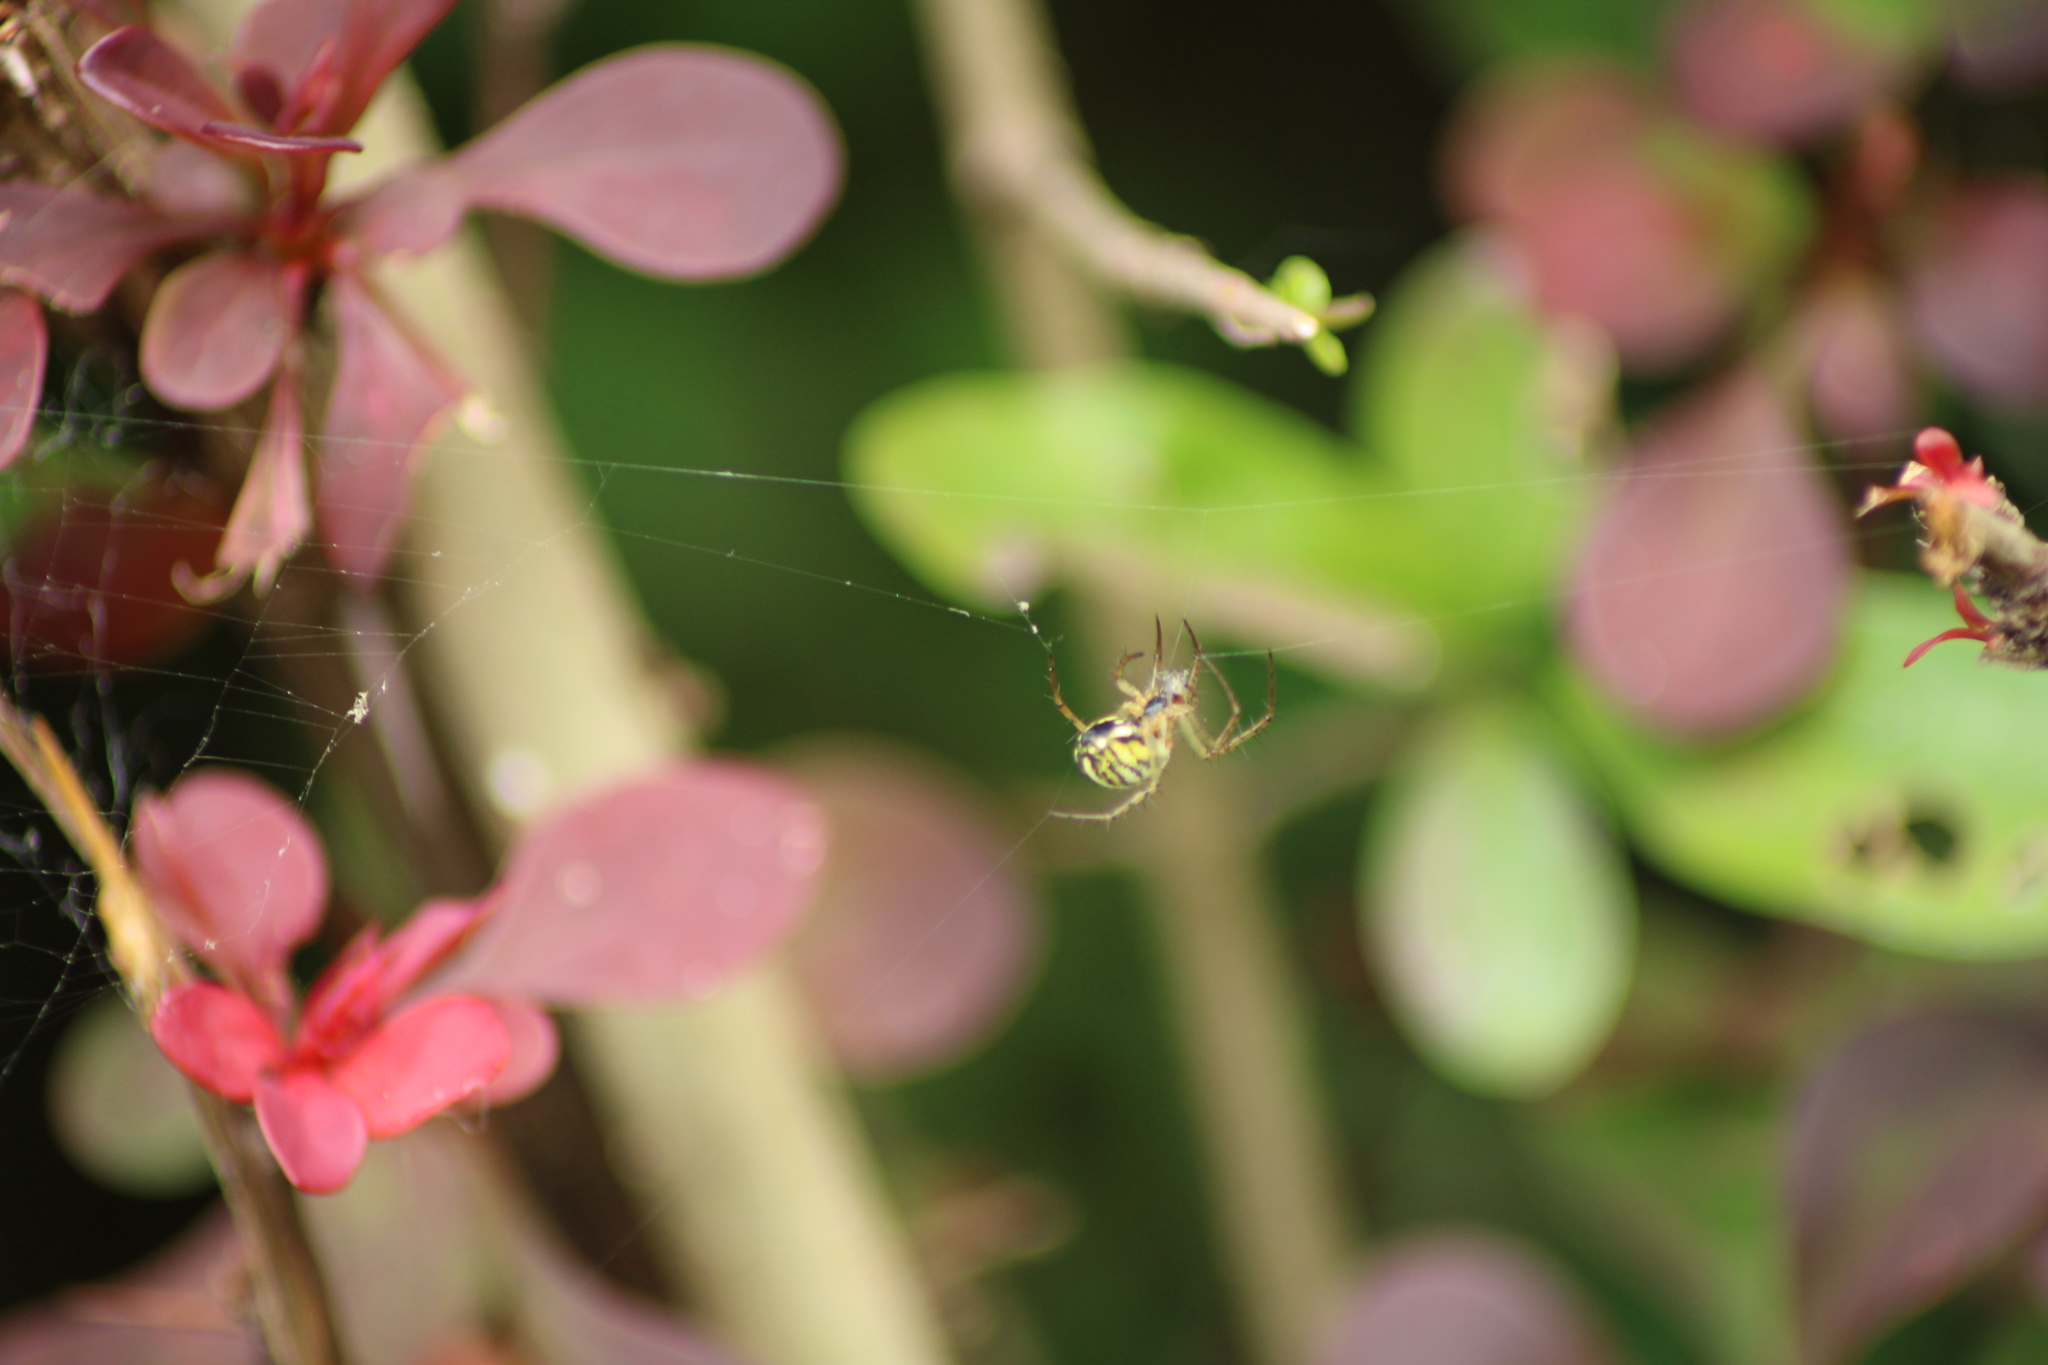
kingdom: Animalia
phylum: Arthropoda
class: Arachnida
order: Araneae
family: Araneidae
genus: Mangora
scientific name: Mangora acalypha
